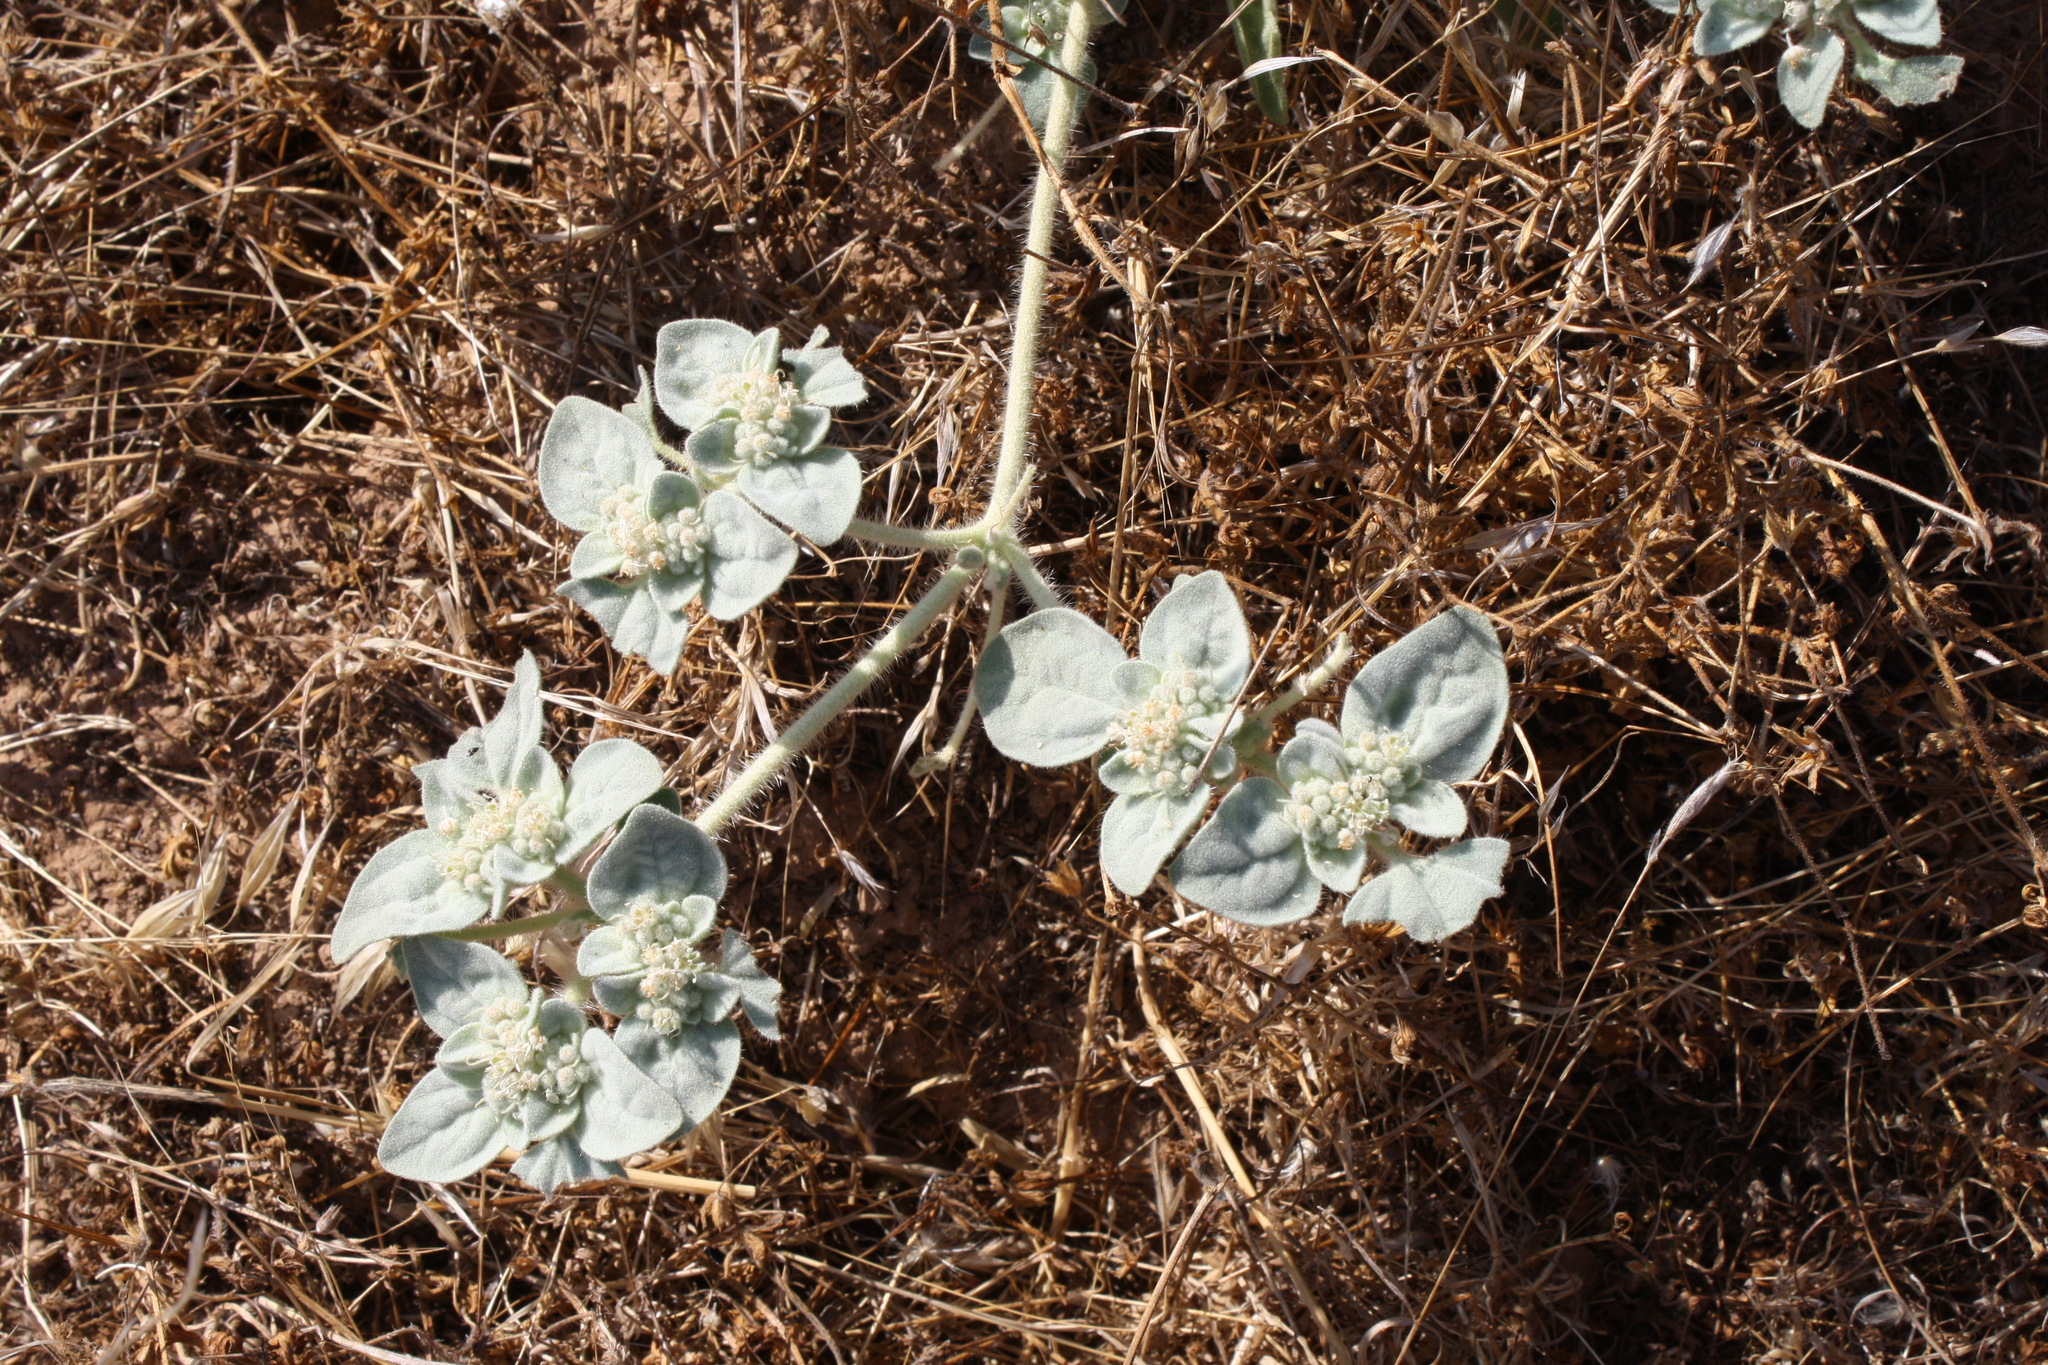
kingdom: Plantae
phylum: Tracheophyta
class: Magnoliopsida
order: Malpighiales
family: Euphorbiaceae
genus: Croton
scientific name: Croton setiger
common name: Dove weed
